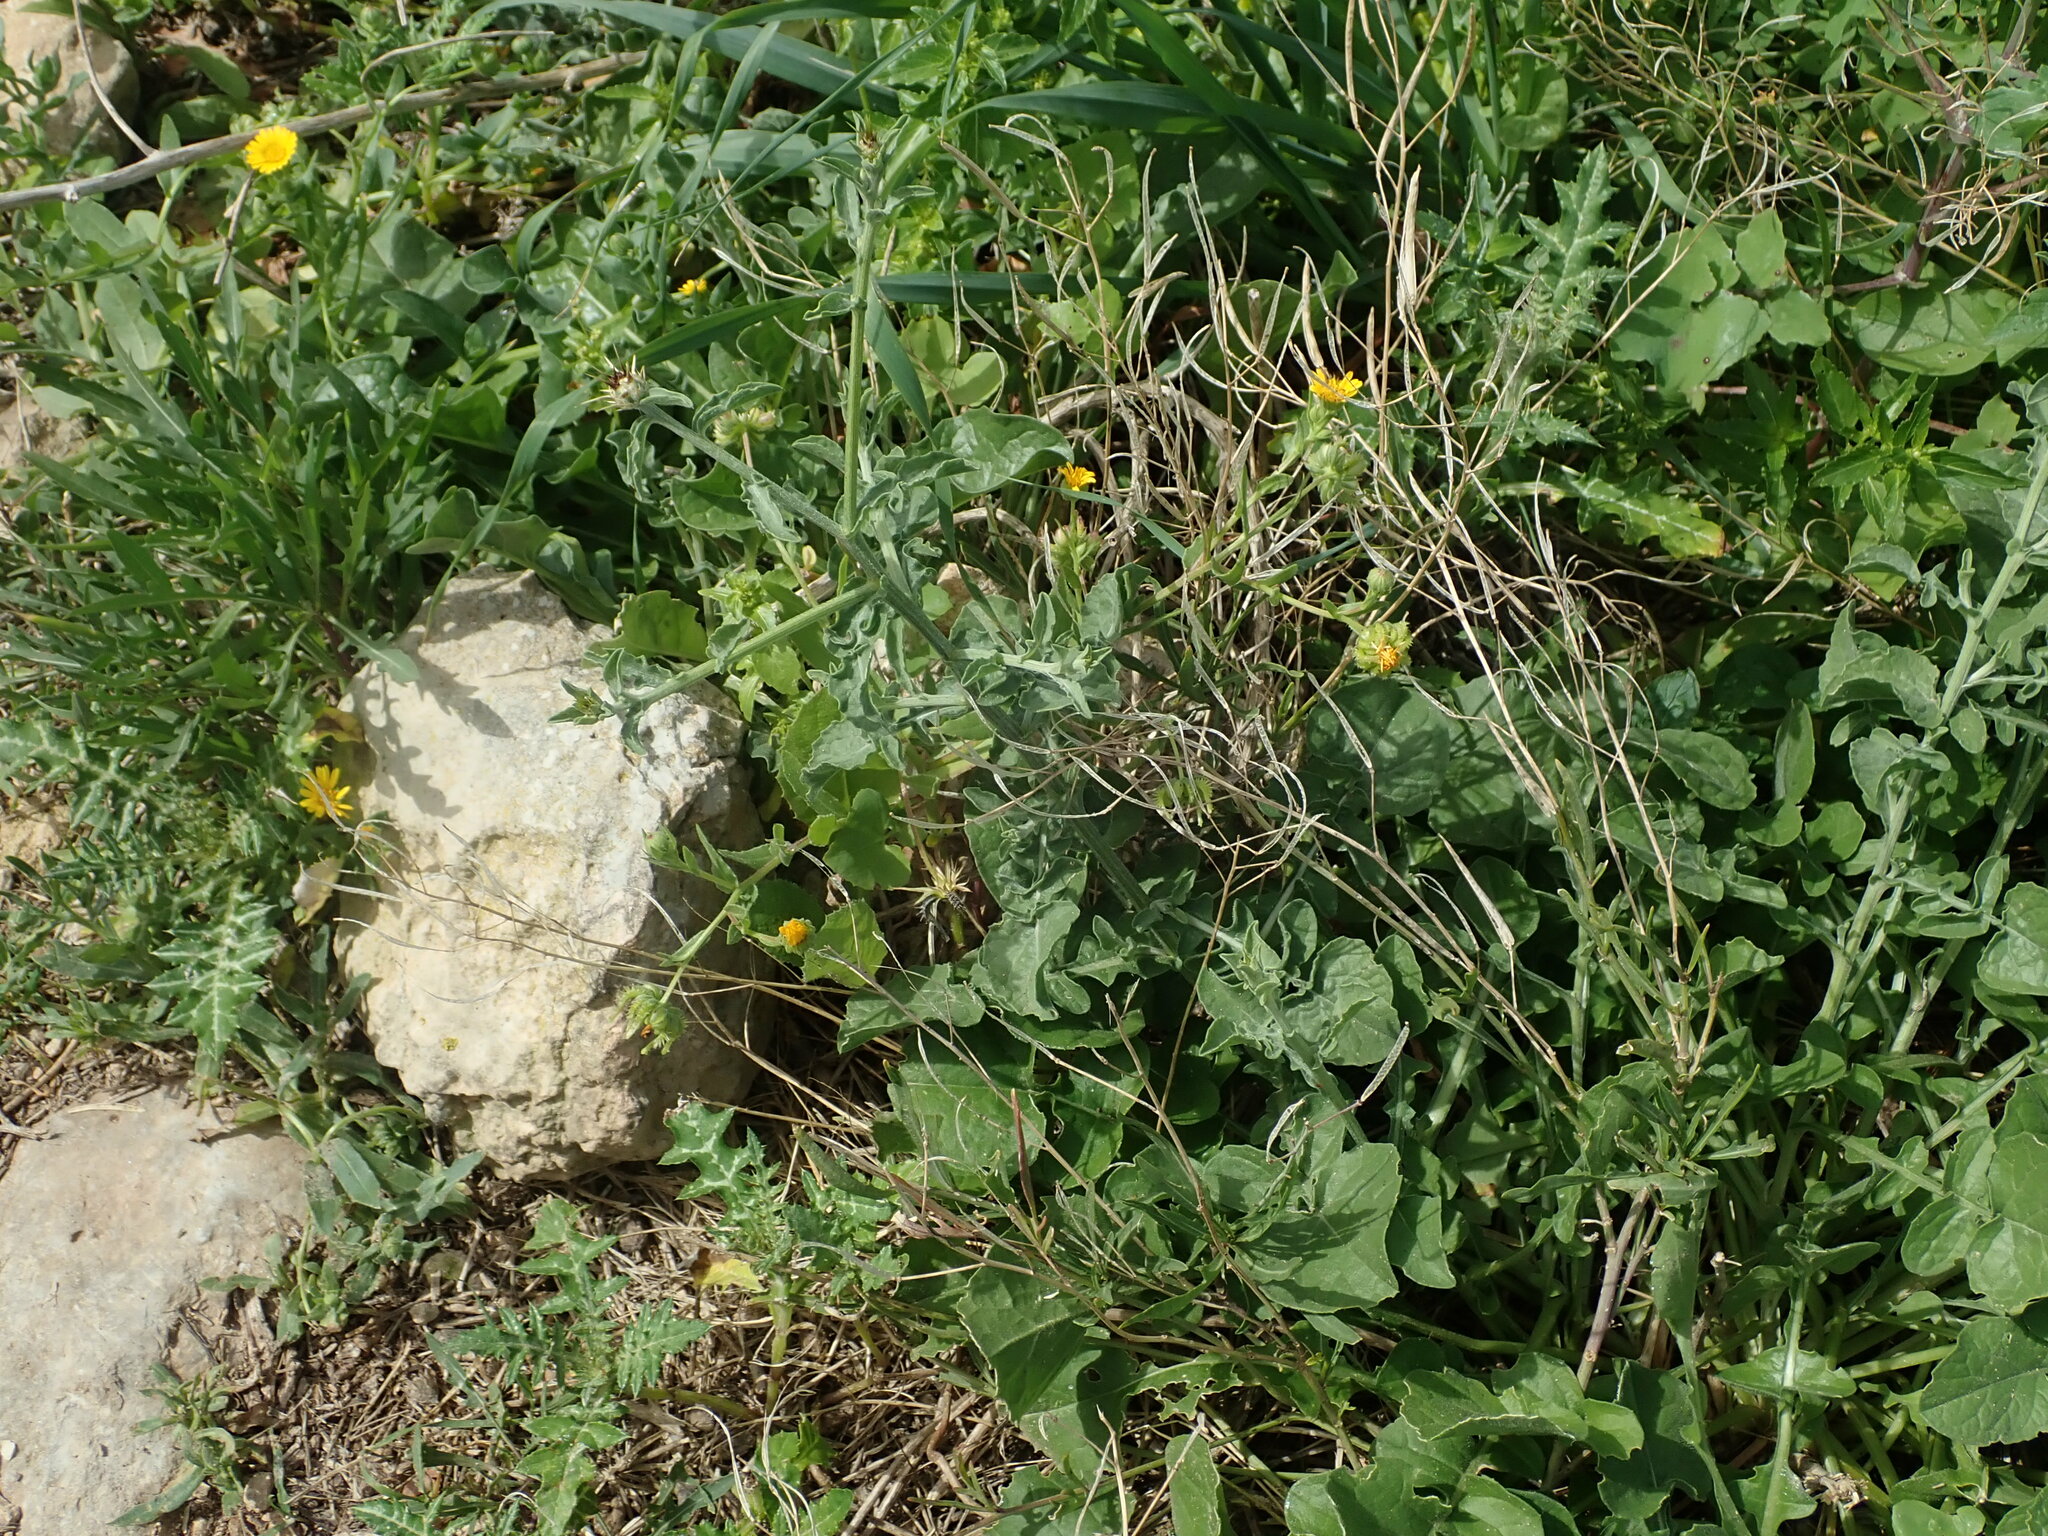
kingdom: Plantae
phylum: Tracheophyta
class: Magnoliopsida
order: Asterales
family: Asteraceae
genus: Centaurea
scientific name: Centaurea sicula
